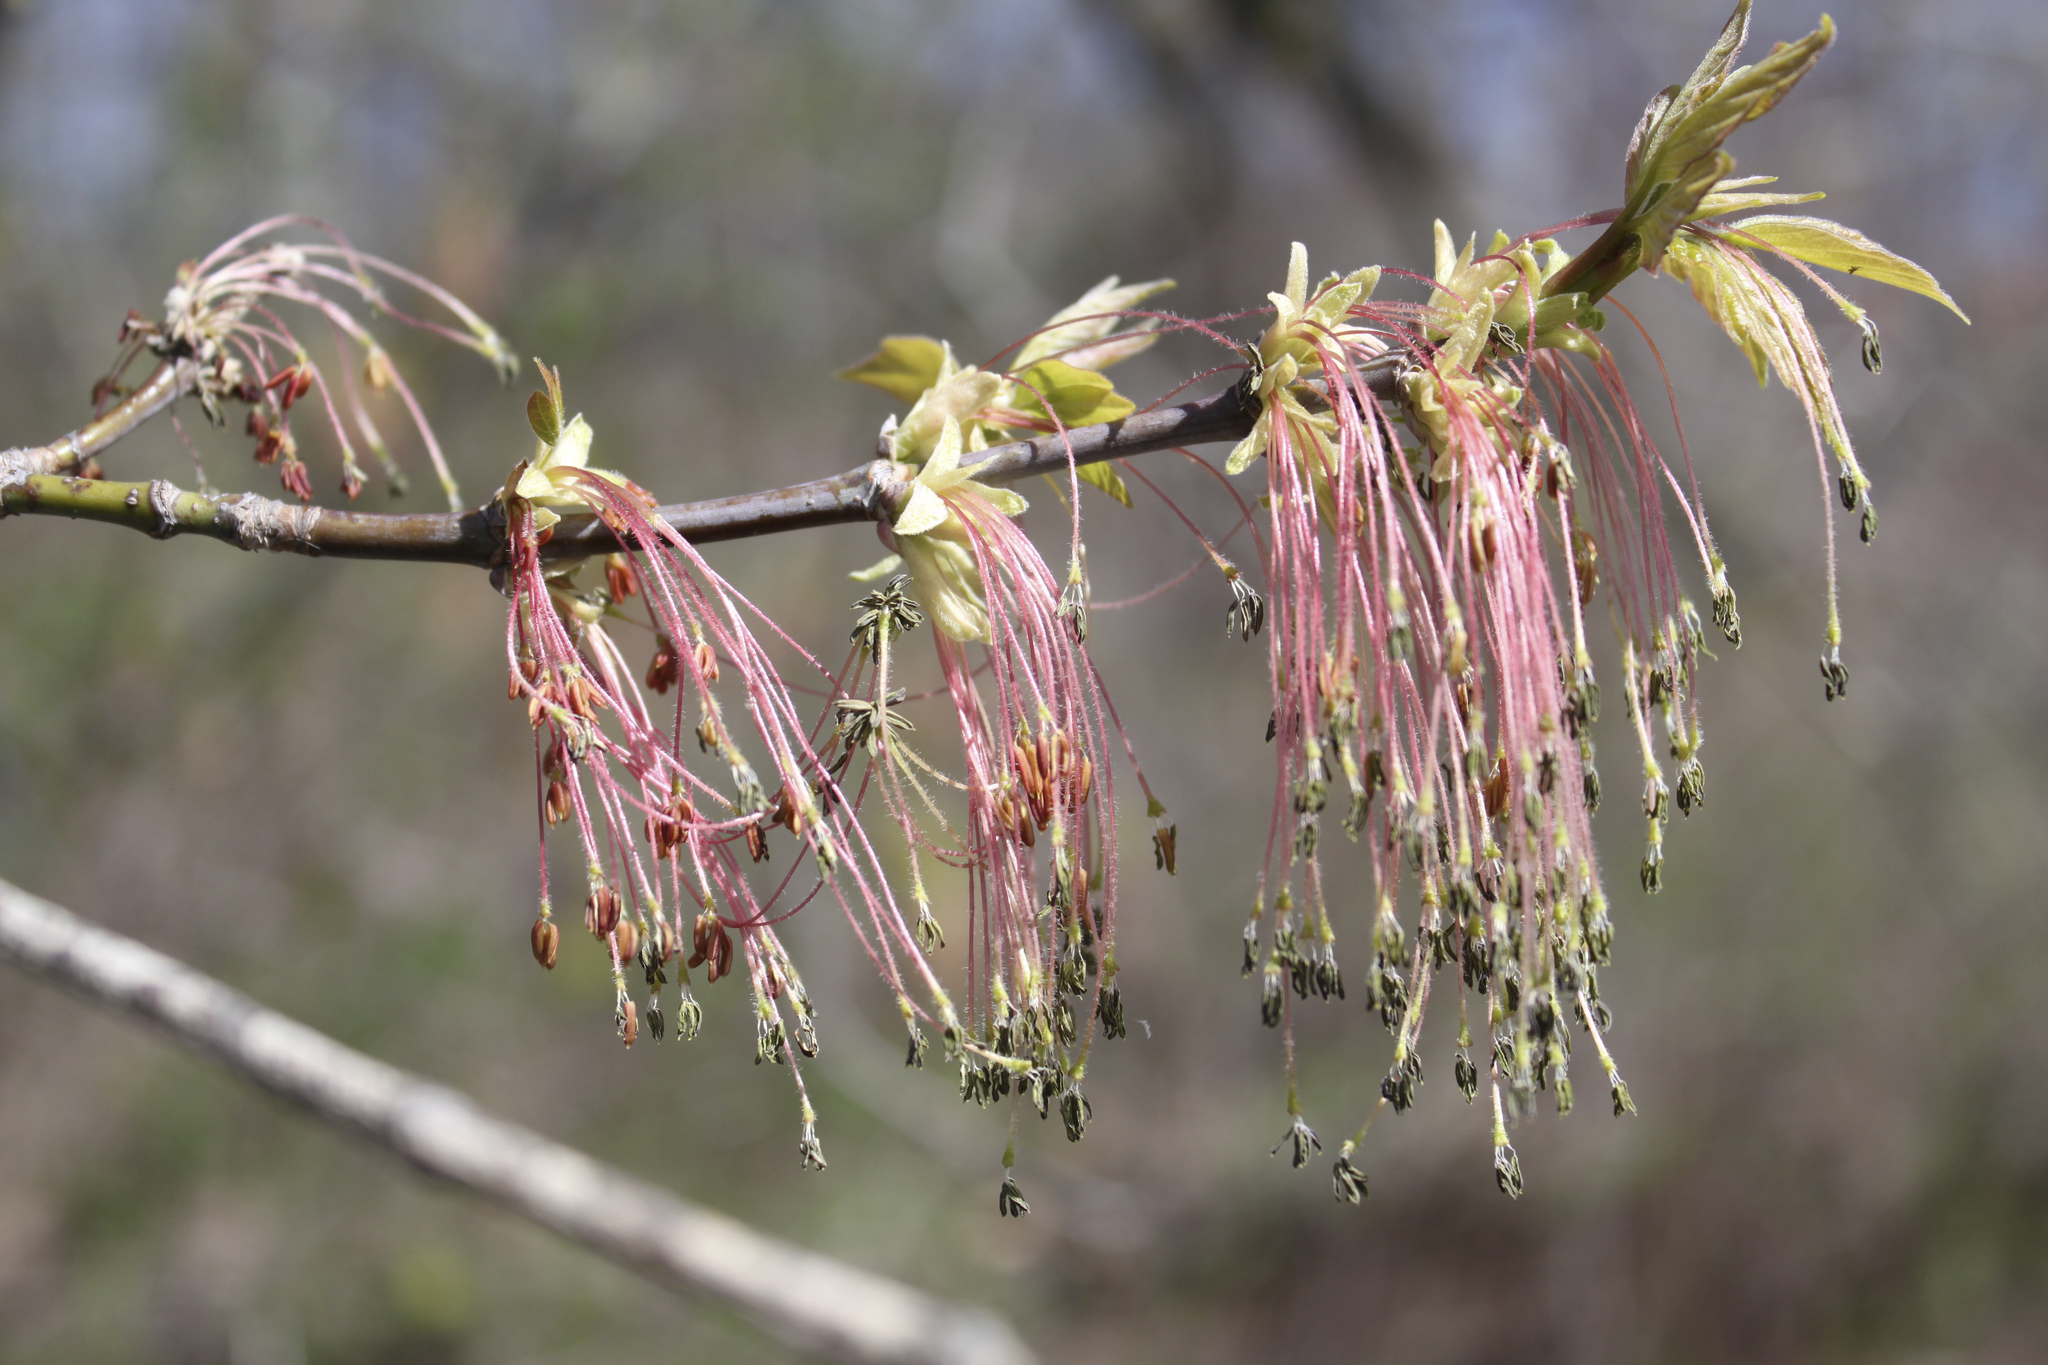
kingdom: Plantae
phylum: Tracheophyta
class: Magnoliopsida
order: Sapindales
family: Sapindaceae
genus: Acer
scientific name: Acer negundo
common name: Ashleaf maple
